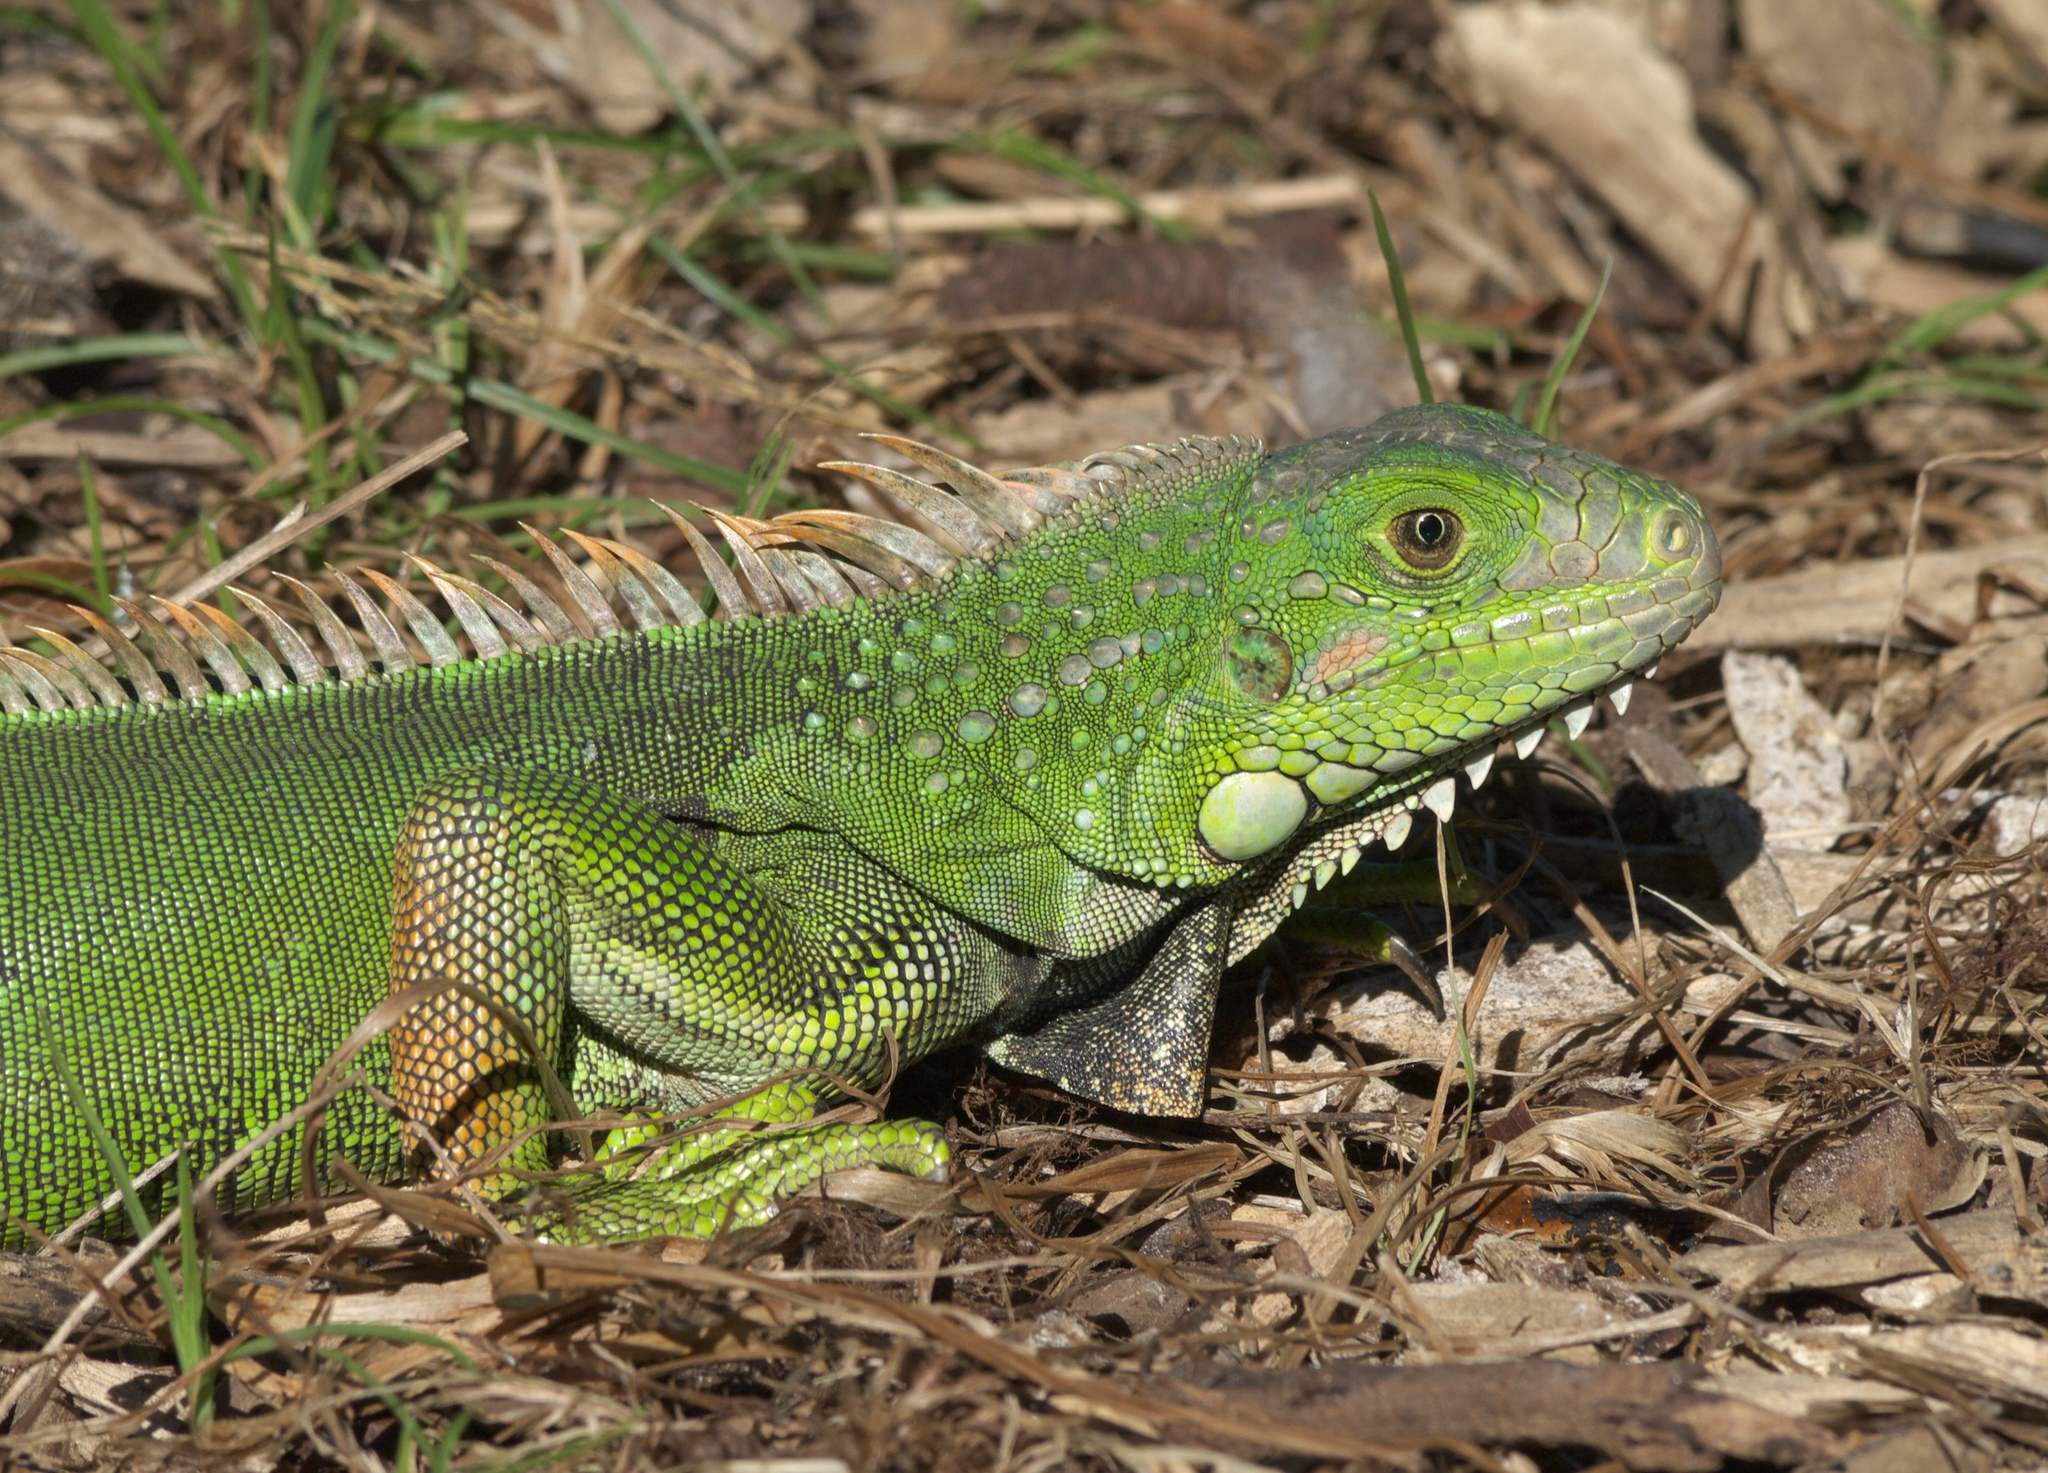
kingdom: Animalia
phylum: Chordata
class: Squamata
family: Iguanidae
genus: Iguana
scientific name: Iguana iguana
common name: Green iguana
